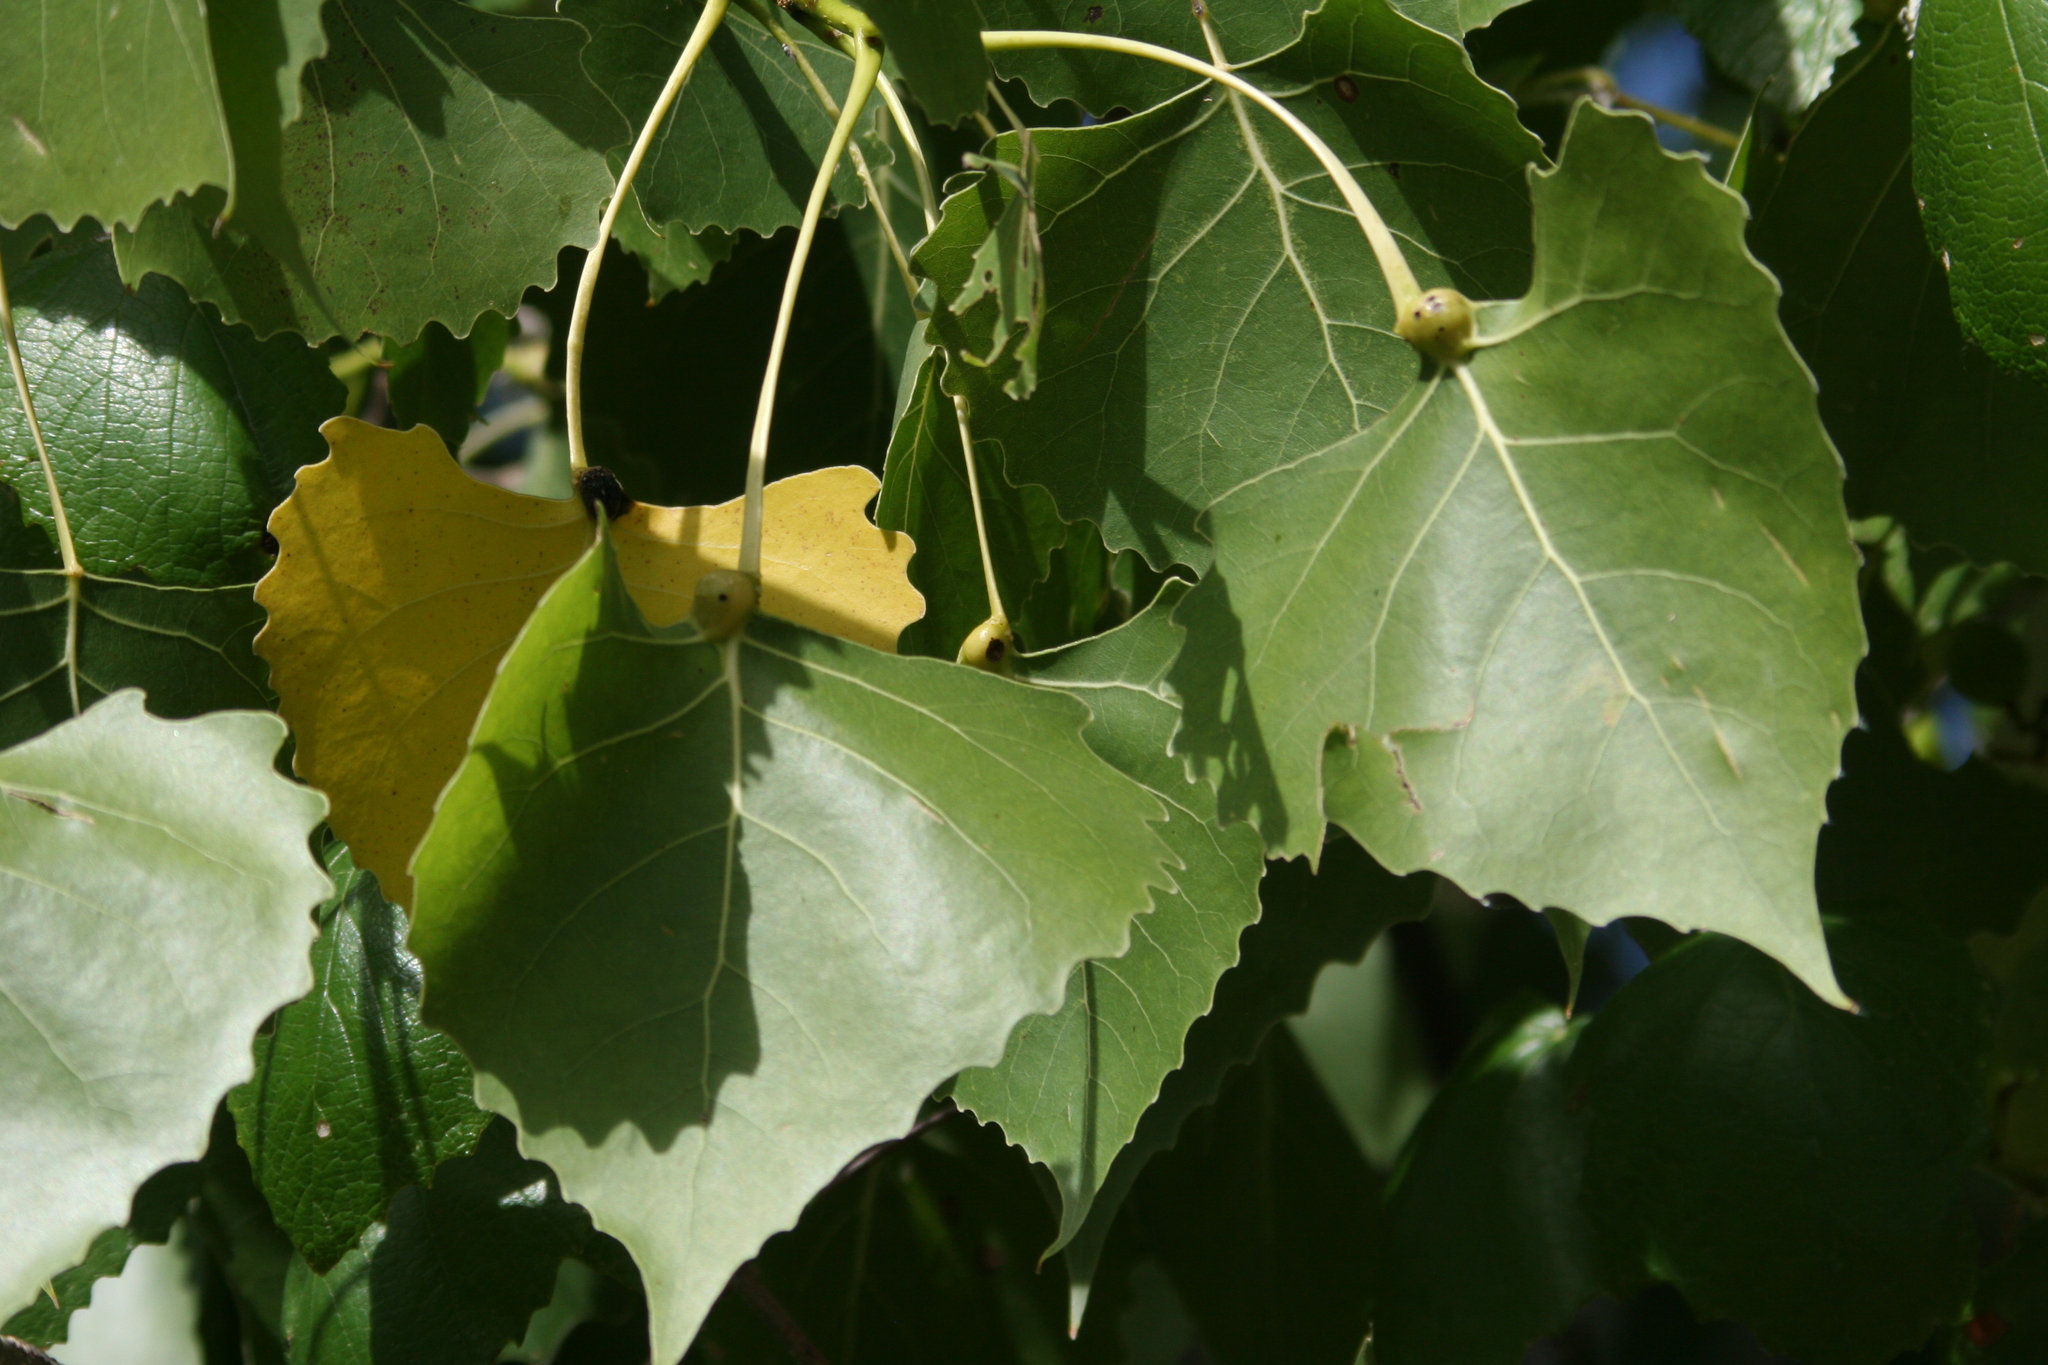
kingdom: Plantae
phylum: Tracheophyta
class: Magnoliopsida
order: Malpighiales
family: Salicaceae
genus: Populus
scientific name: Populus deltoides
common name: Eastern cottonwood
